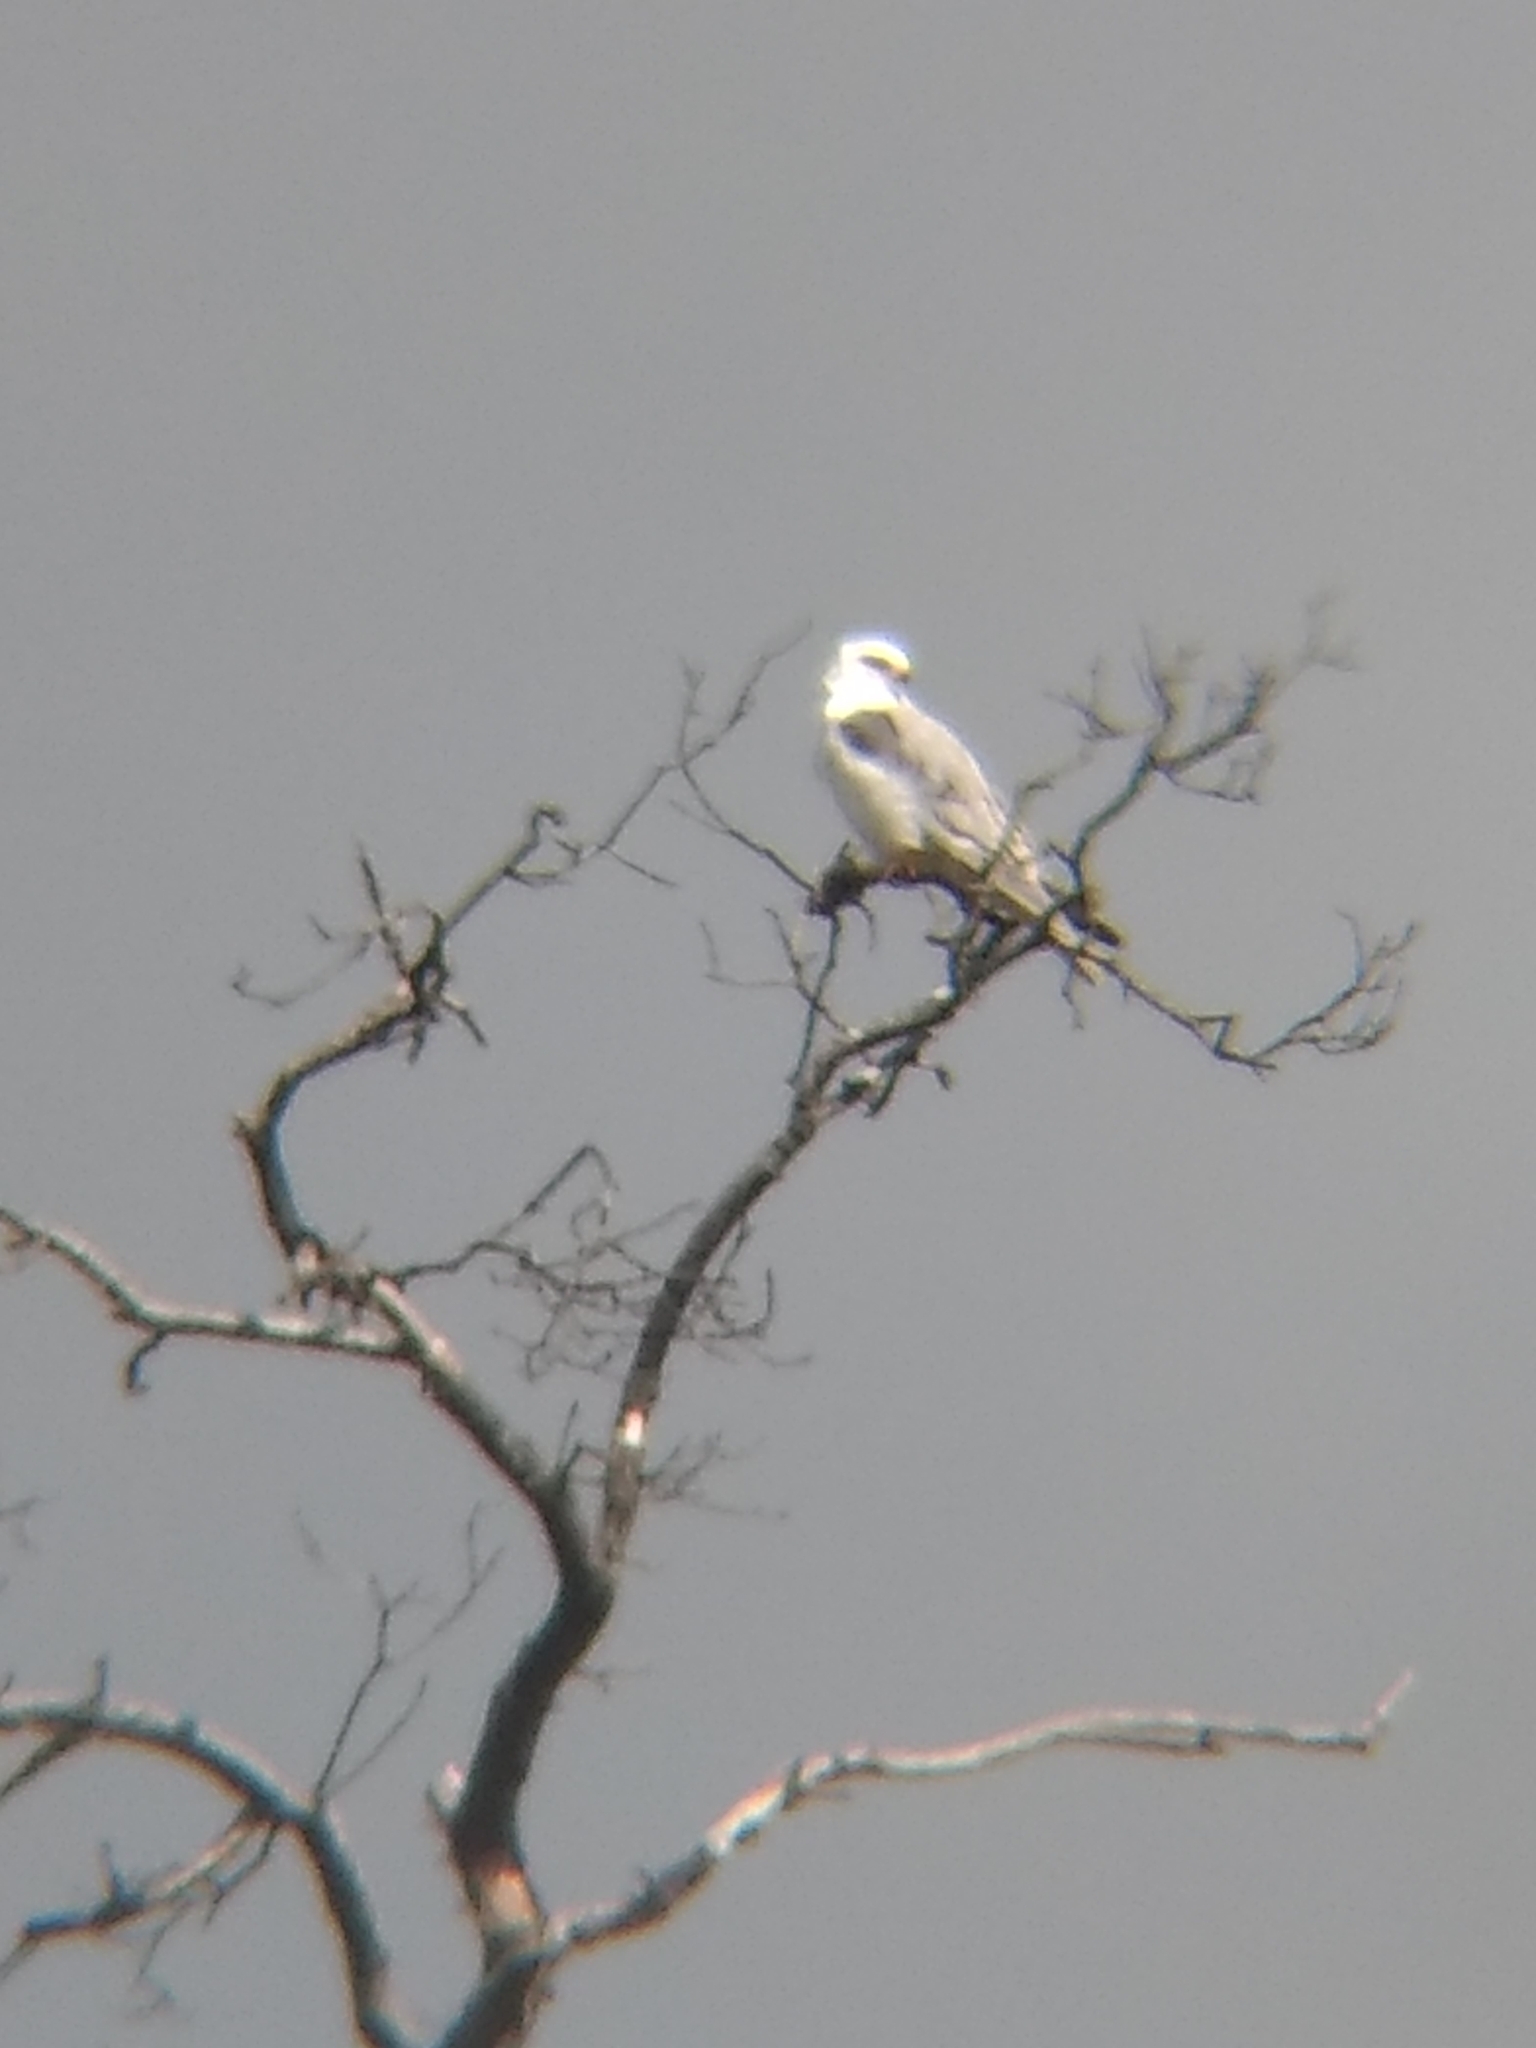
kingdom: Animalia
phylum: Chordata
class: Aves
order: Accipitriformes
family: Accipitridae
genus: Elanus
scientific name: Elanus leucurus
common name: White-tailed kite
